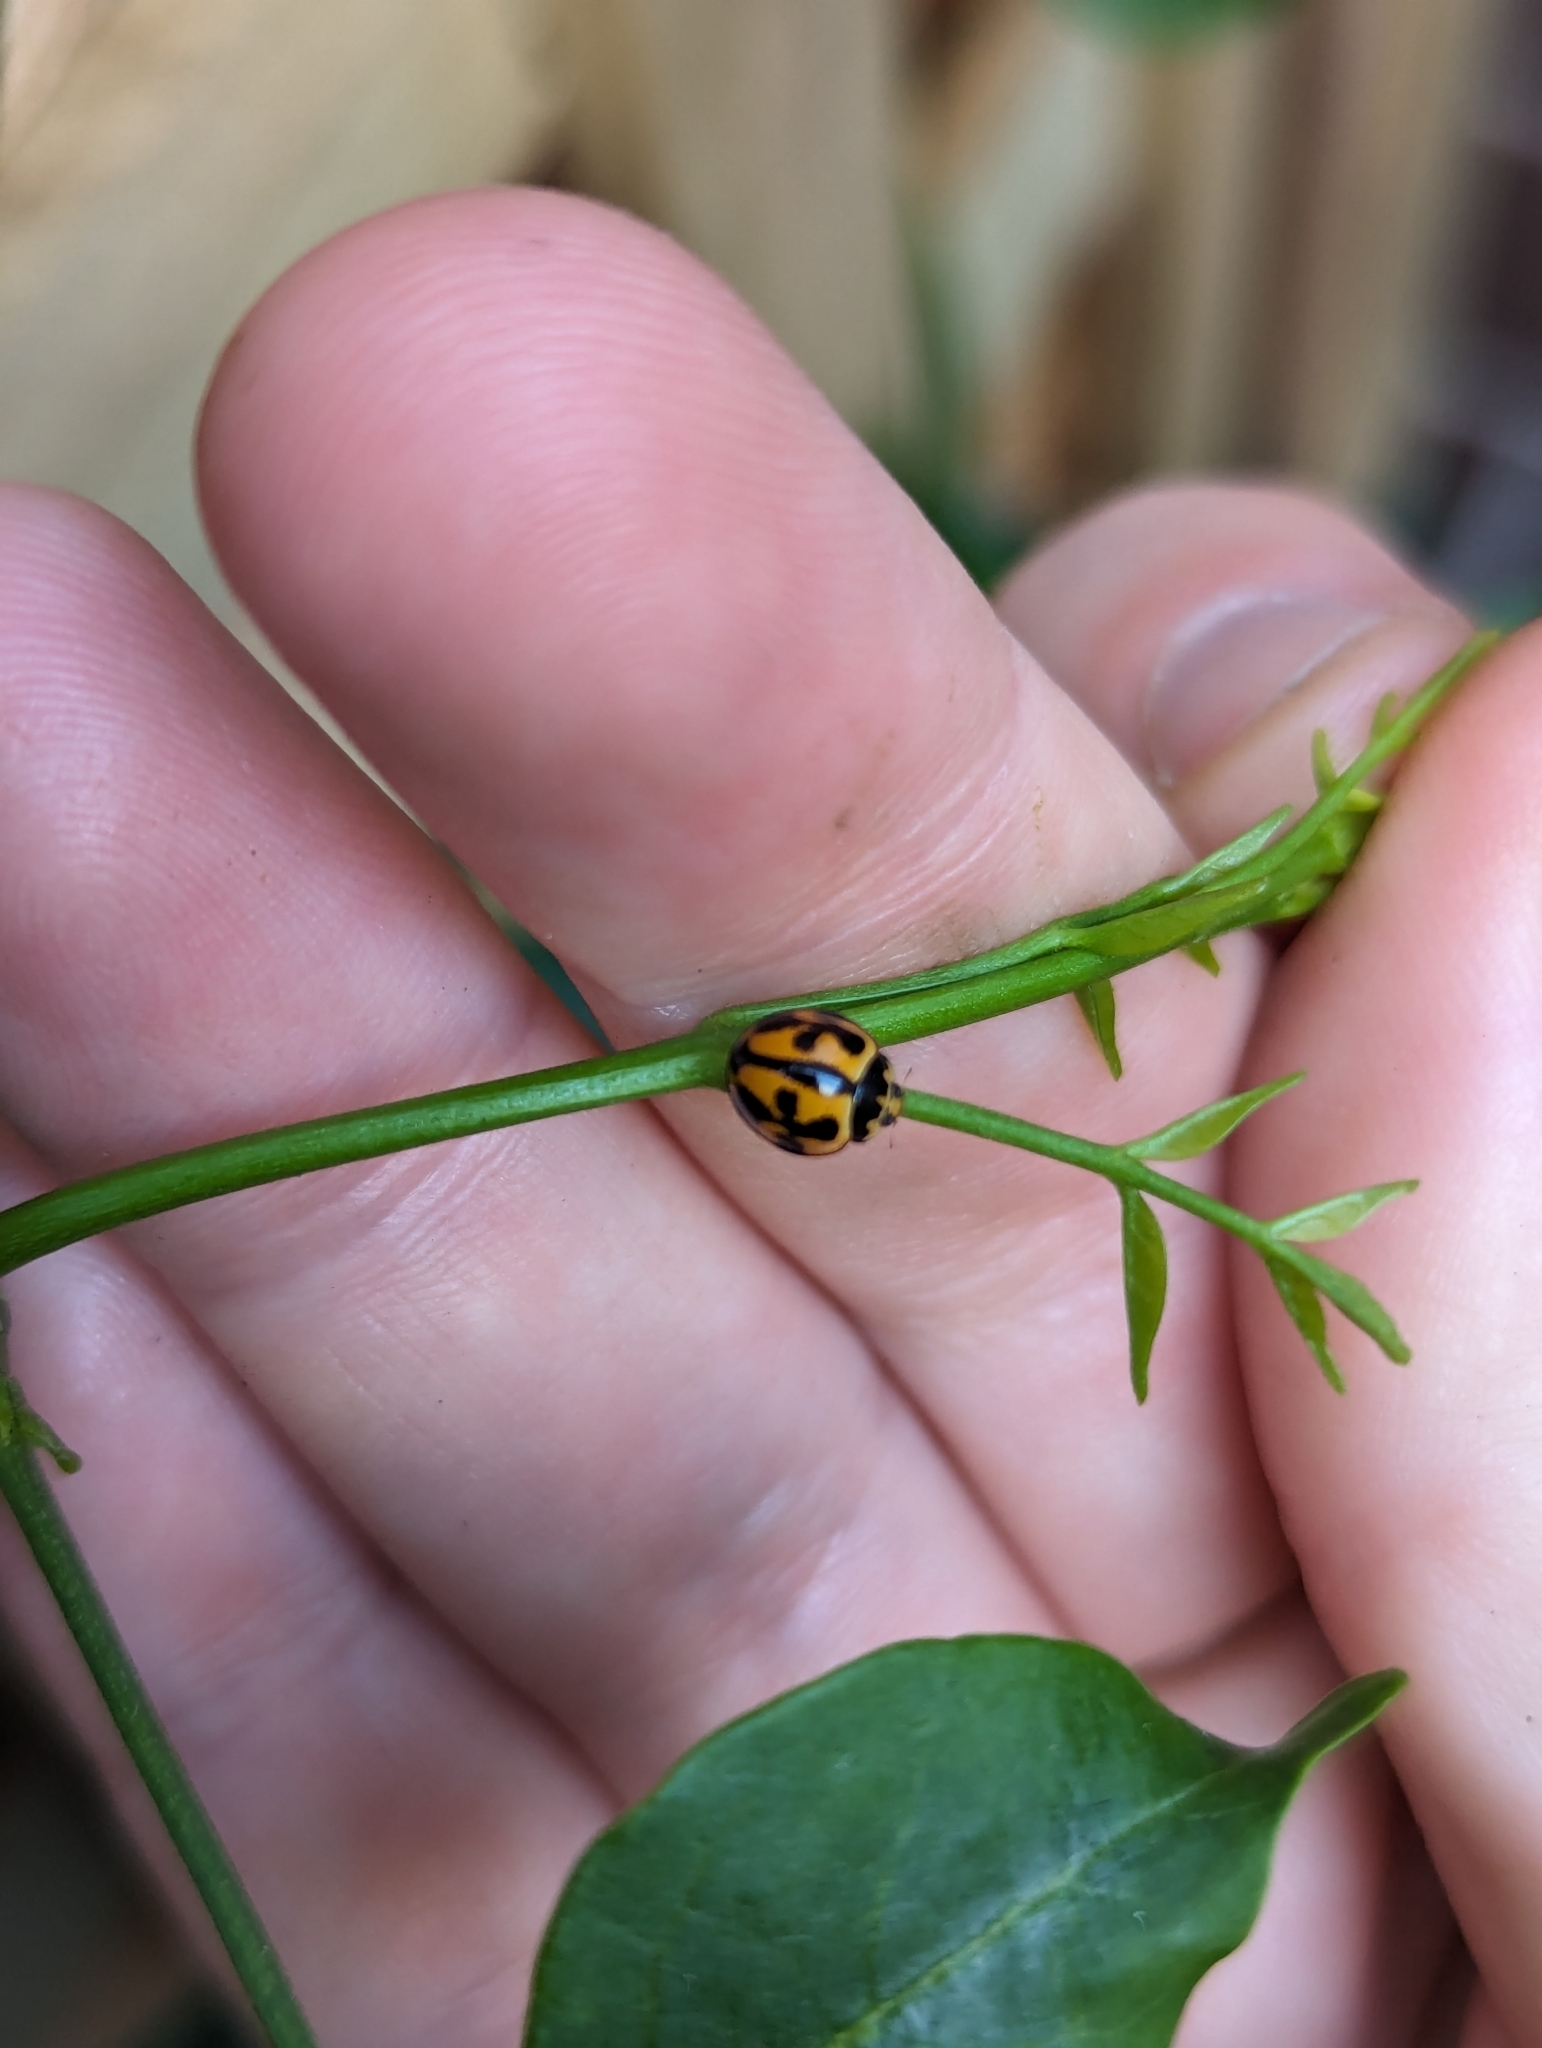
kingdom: Animalia
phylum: Arthropoda
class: Insecta
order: Coleoptera
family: Coccinellidae
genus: Coelophora
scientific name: Coelophora inaequalis
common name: Common australian lady beetle
